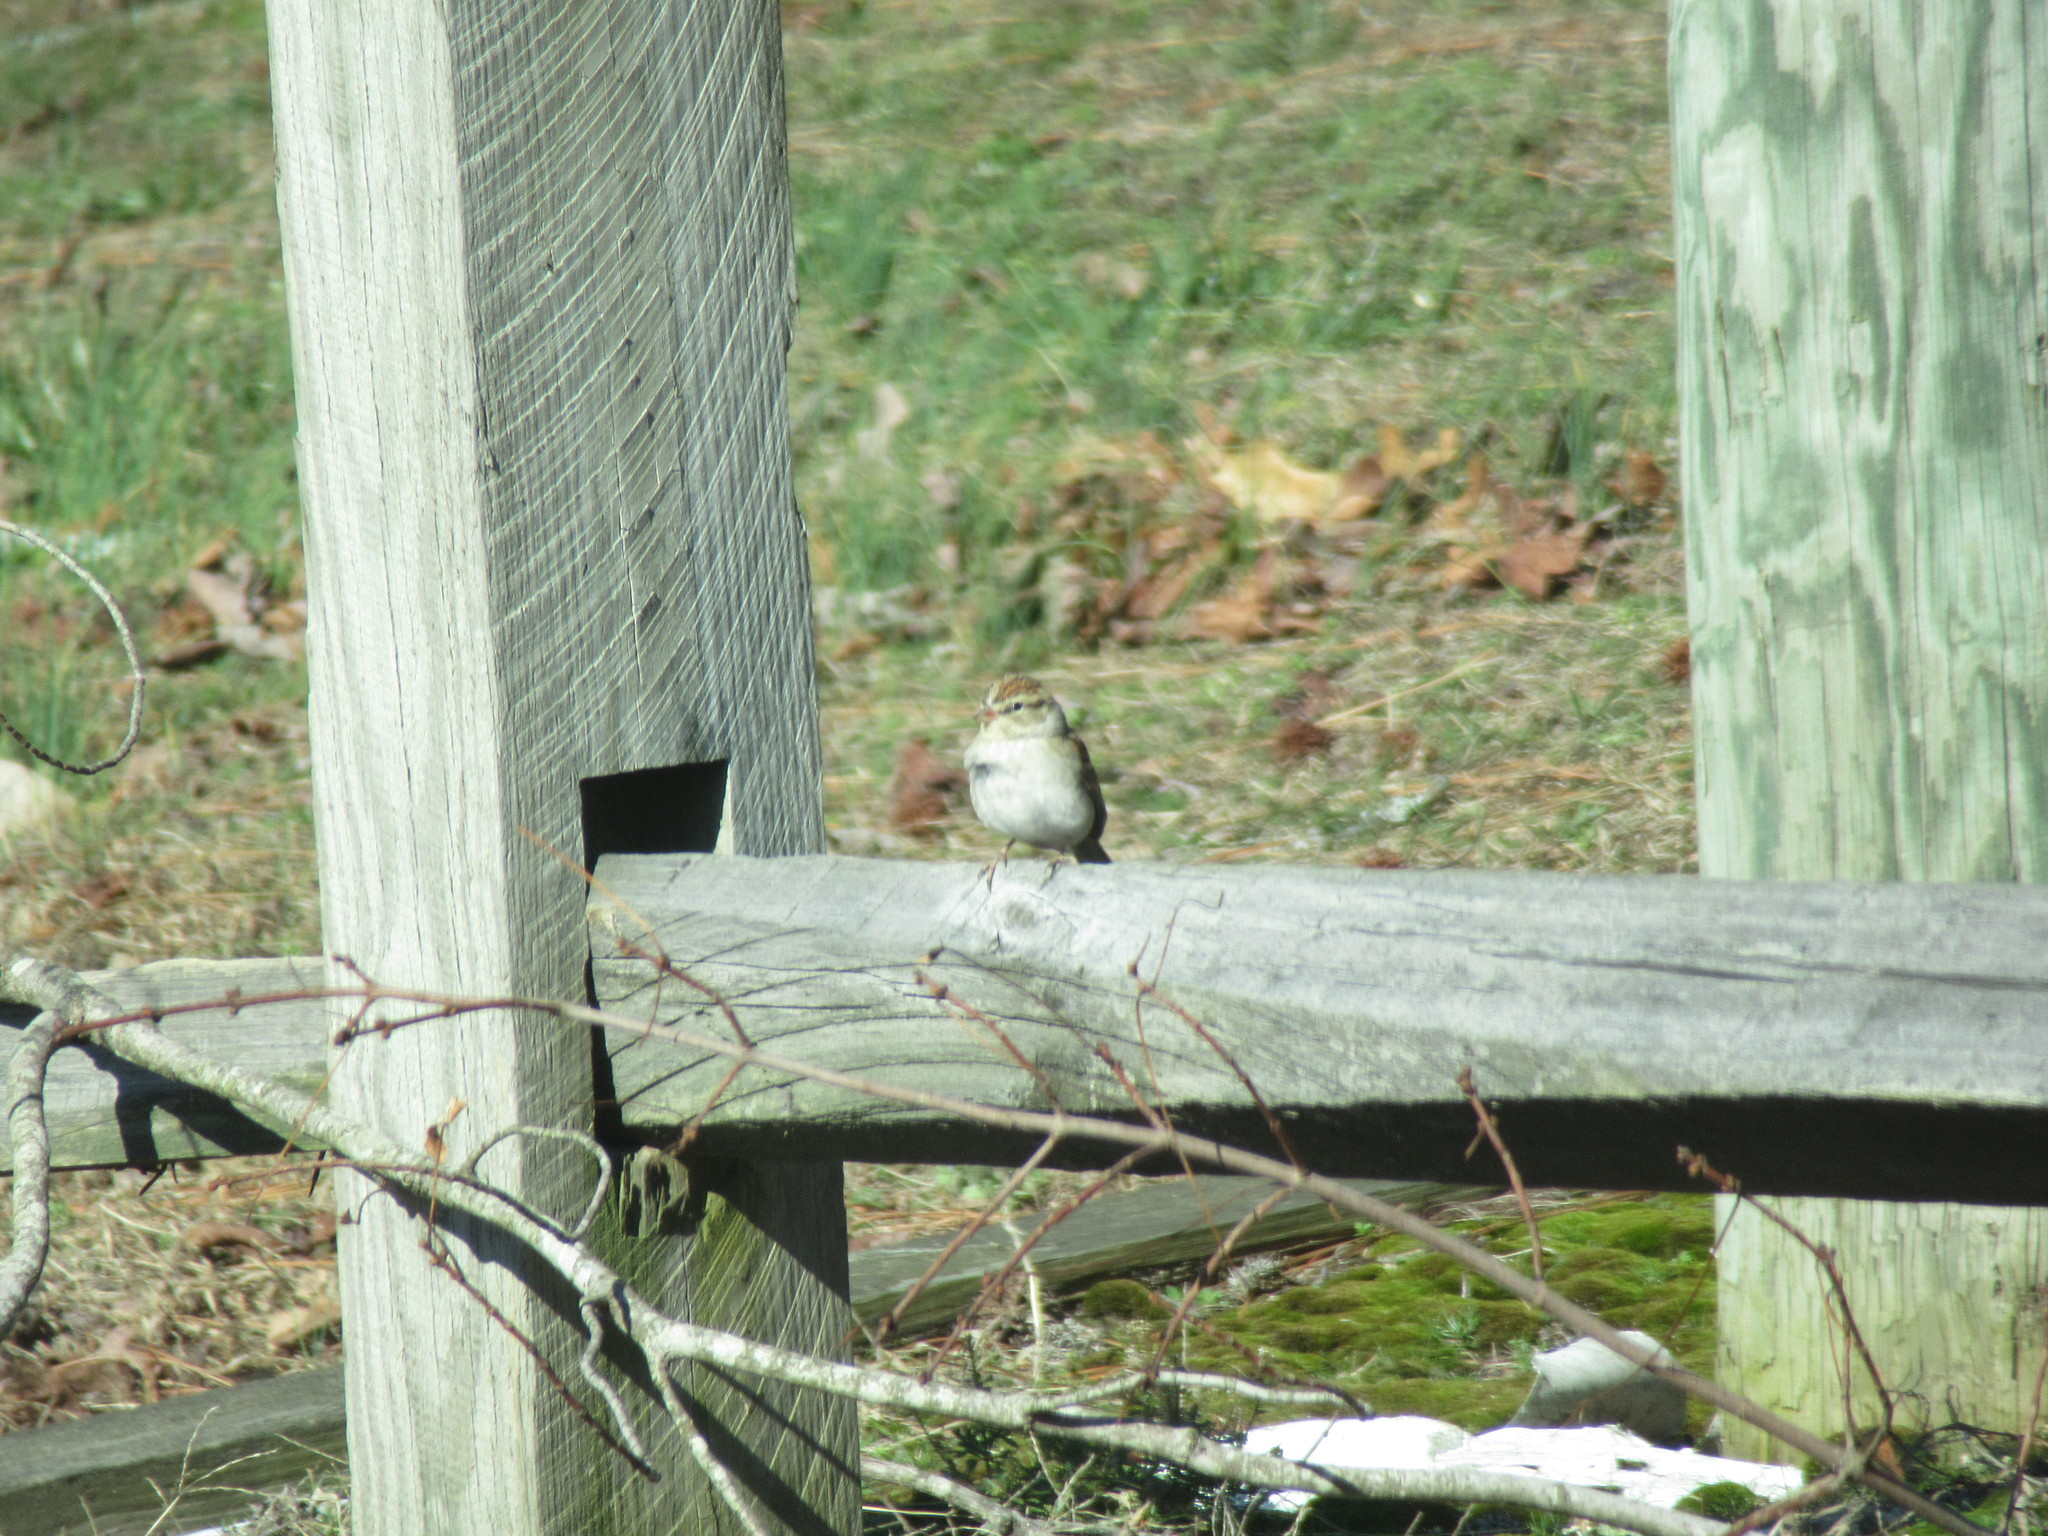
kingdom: Animalia
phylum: Chordata
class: Aves
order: Passeriformes
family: Passerellidae
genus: Spizella
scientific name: Spizella passerina
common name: Chipping sparrow
